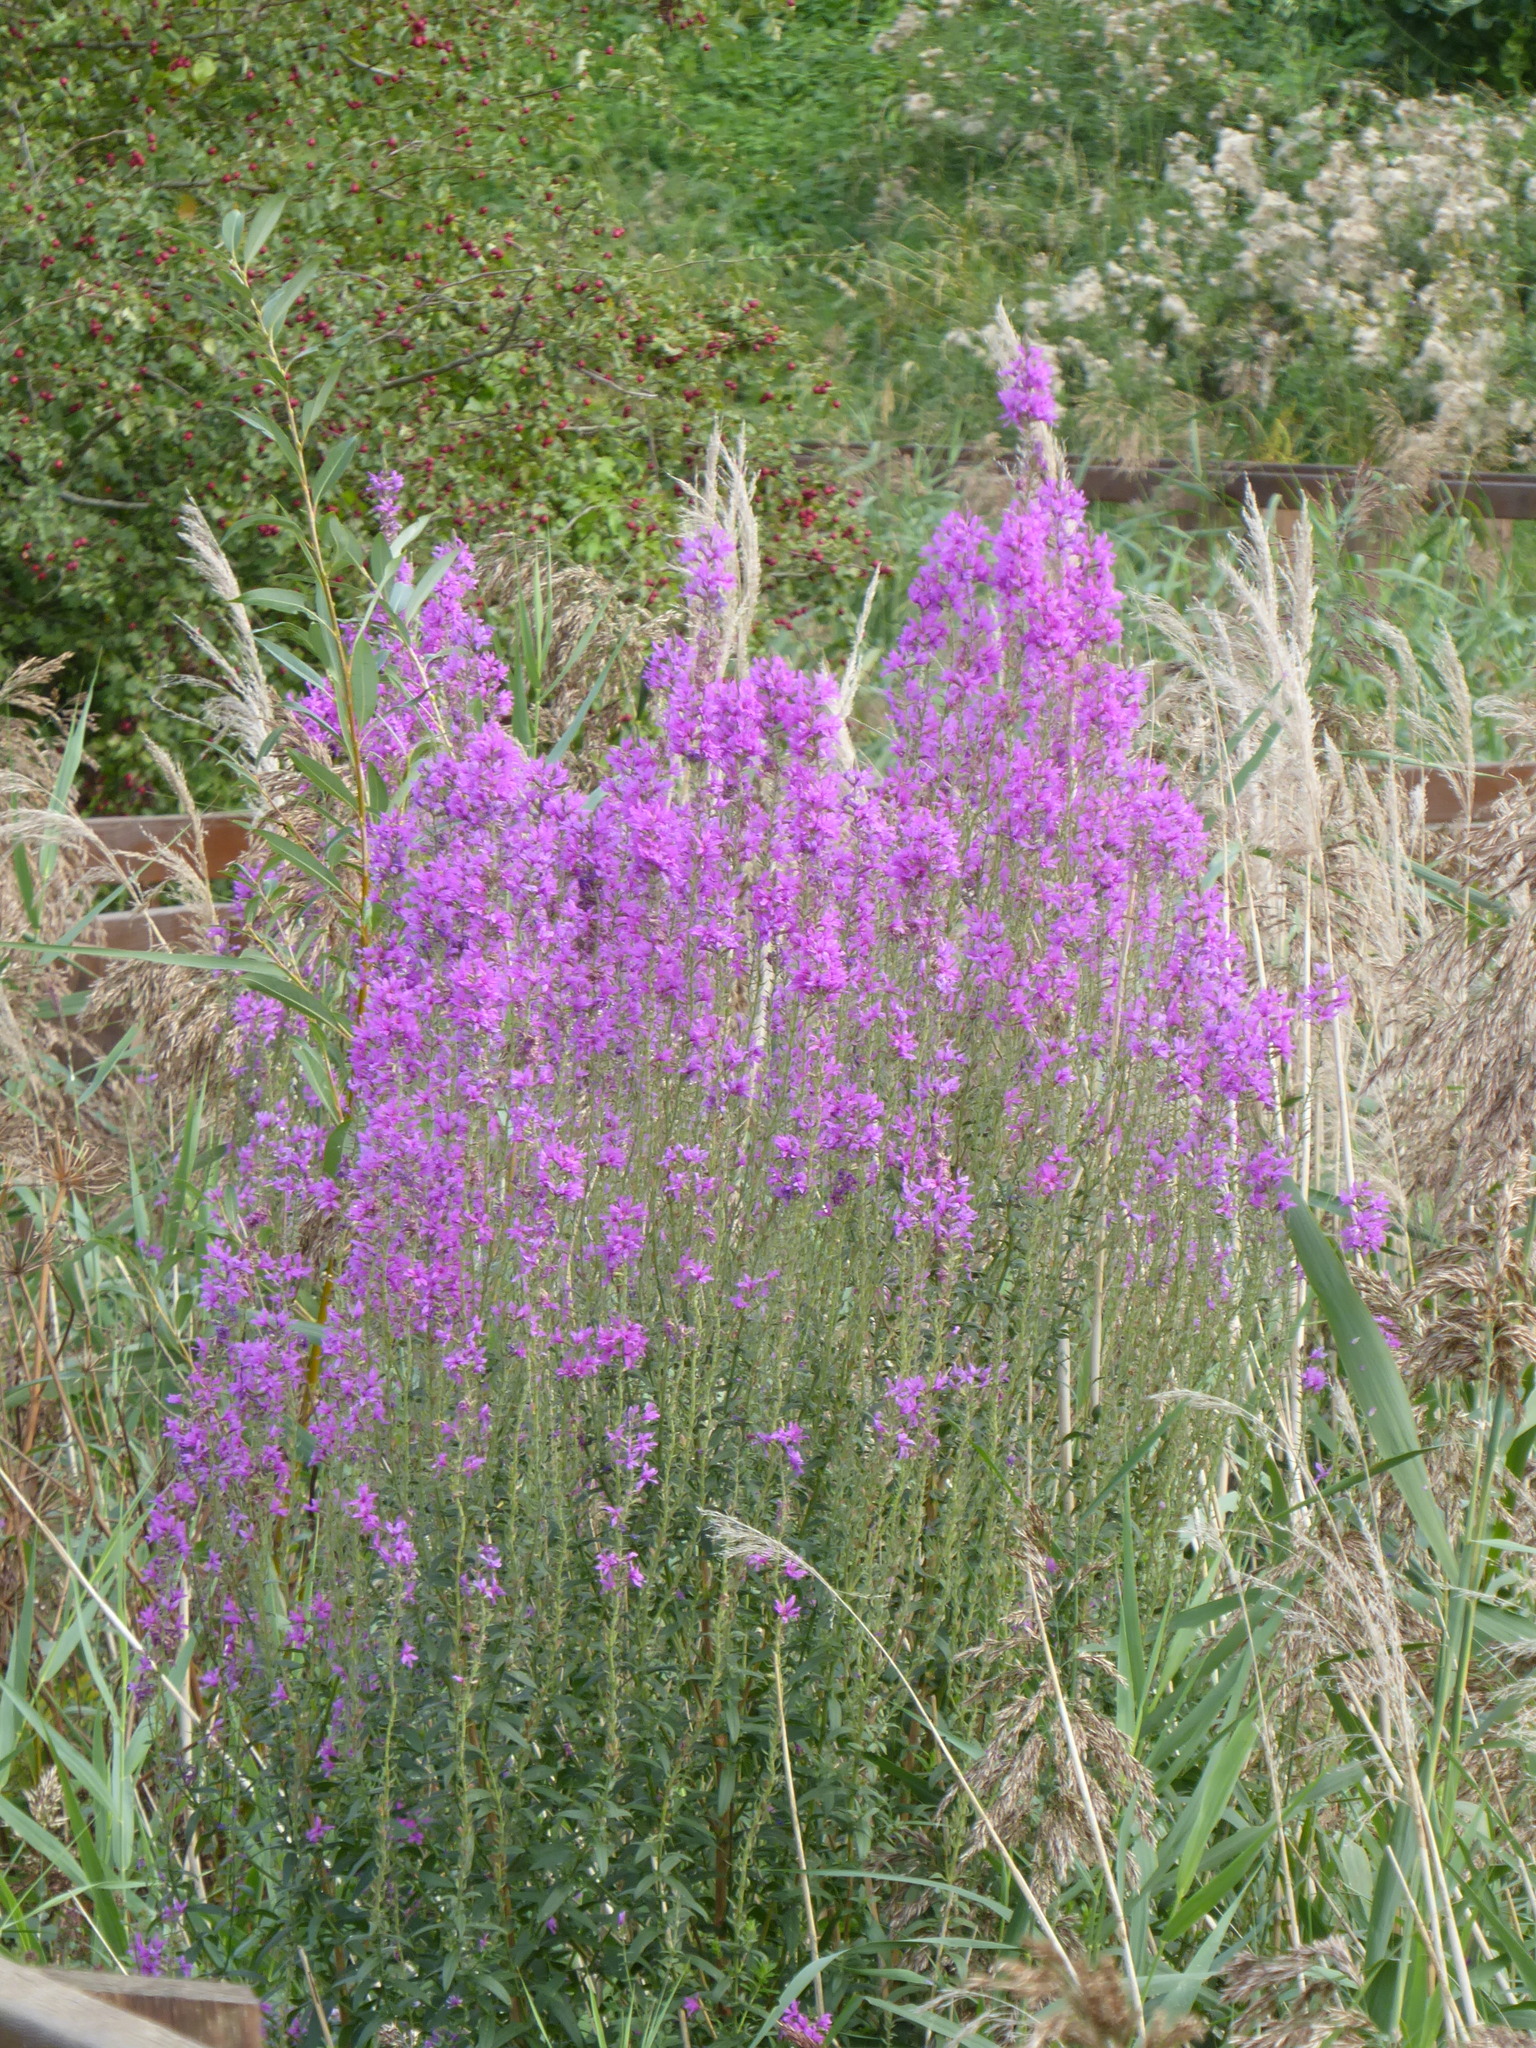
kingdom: Plantae
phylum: Tracheophyta
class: Magnoliopsida
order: Myrtales
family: Lythraceae
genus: Lythrum
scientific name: Lythrum salicaria
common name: Purple loosestrife
